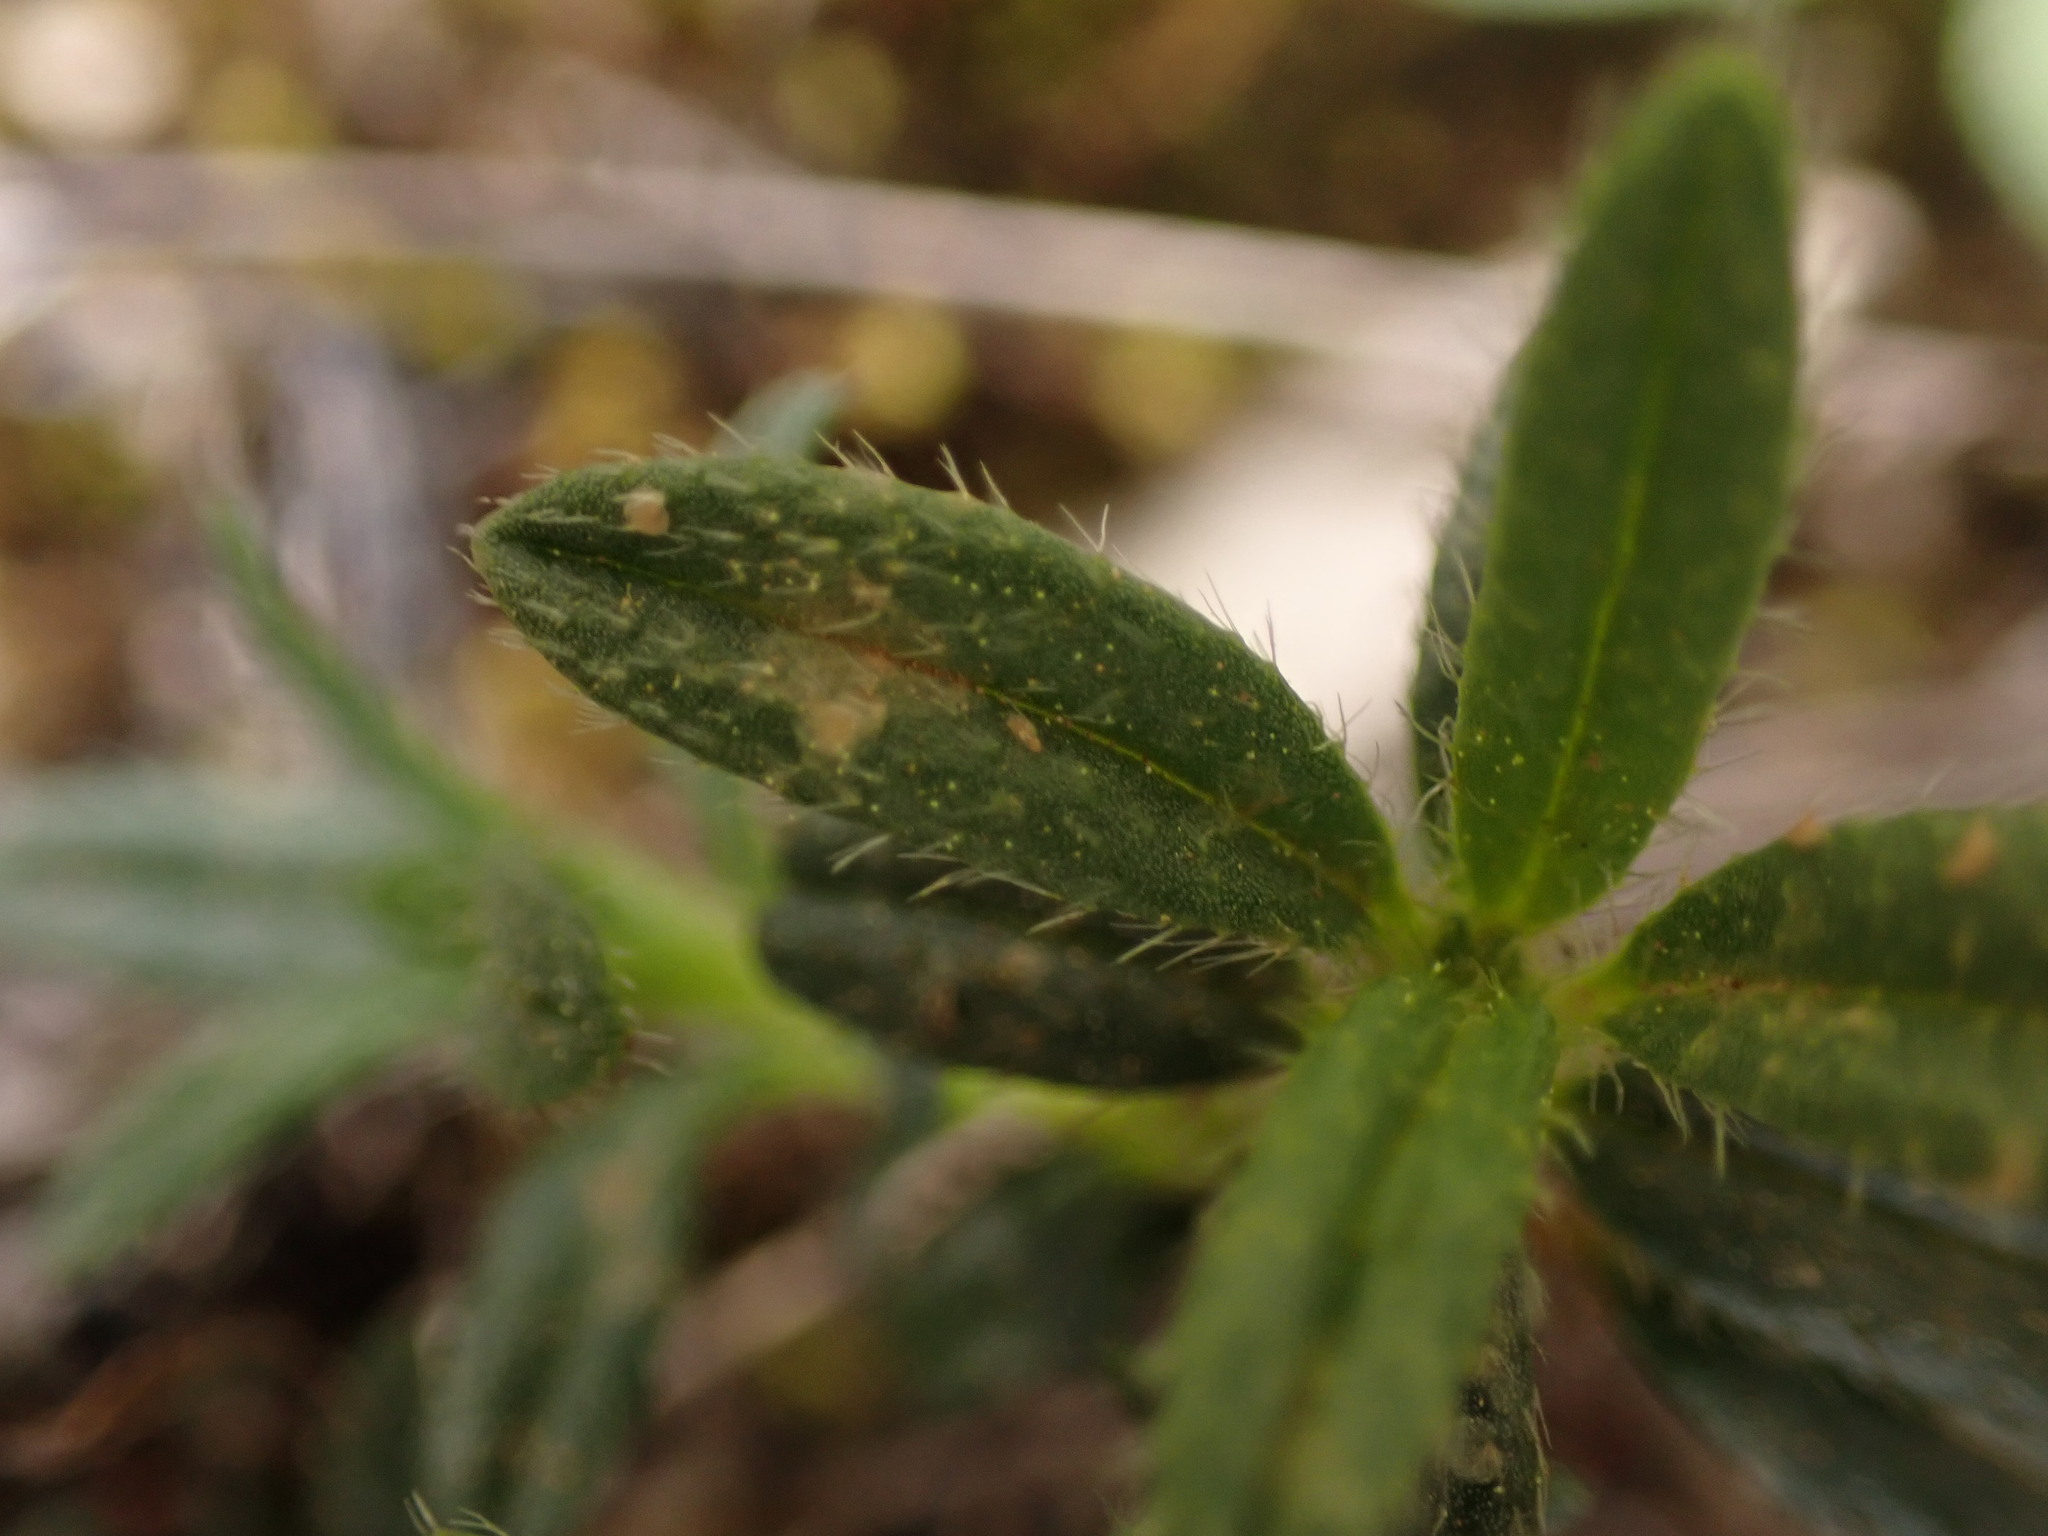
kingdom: Plantae
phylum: Tracheophyta
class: Magnoliopsida
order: Malvales
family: Cistaceae
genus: Helianthemum
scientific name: Helianthemum oelandicum
